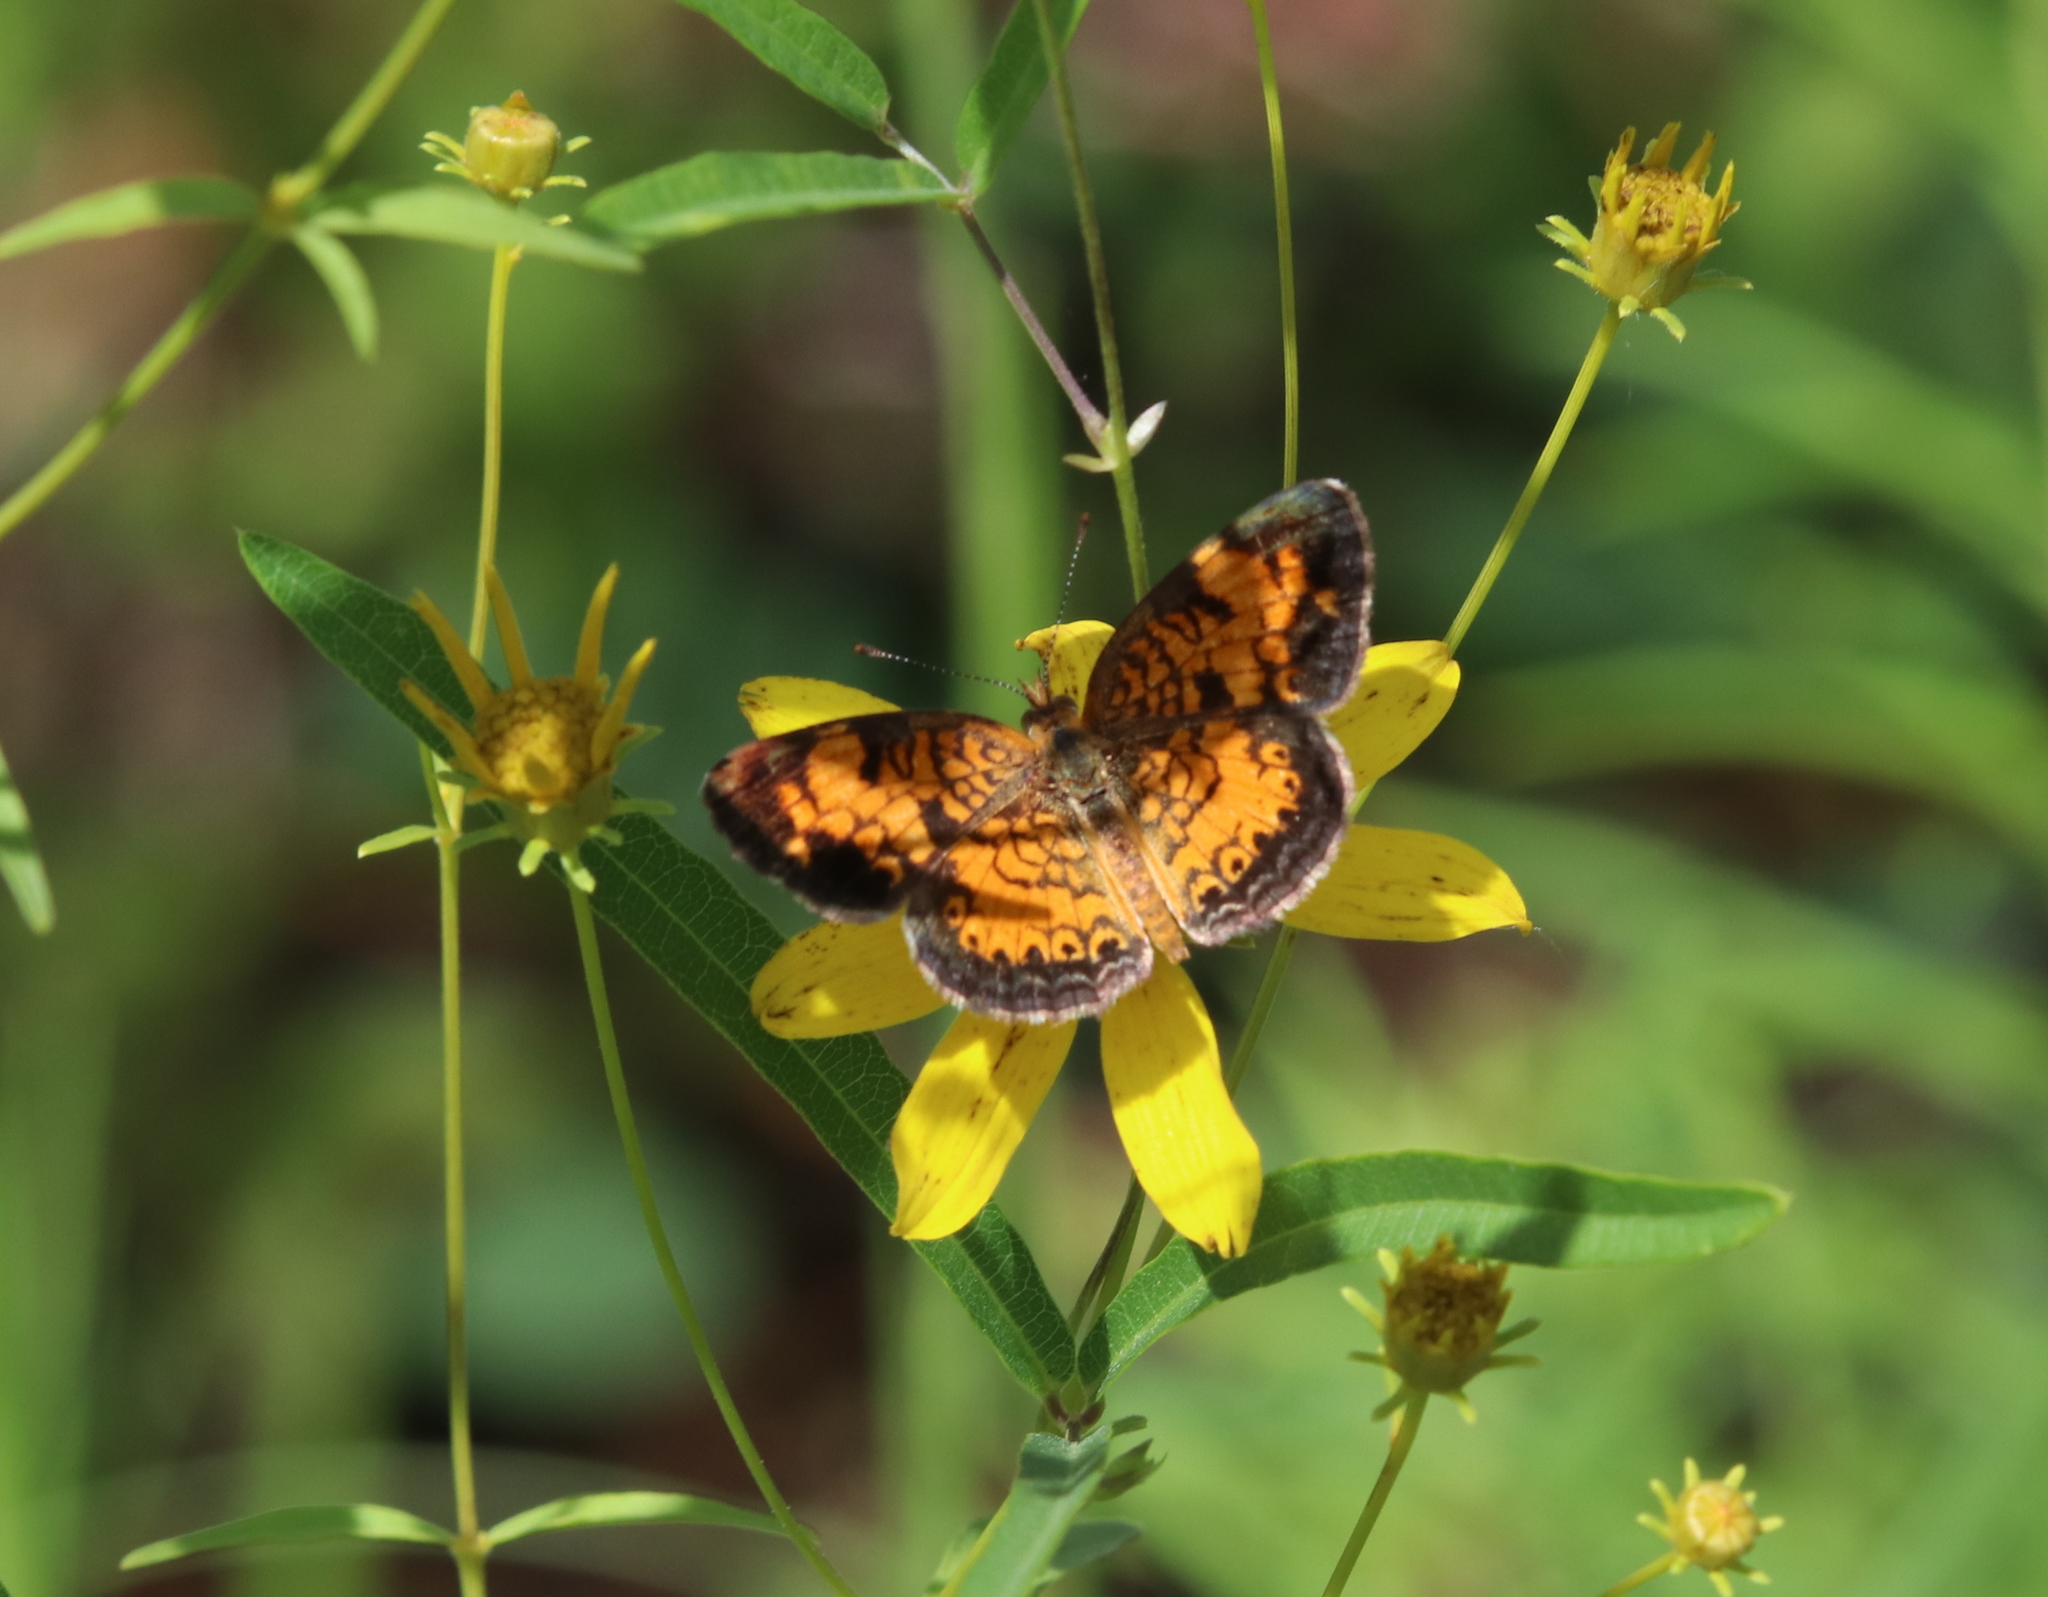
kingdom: Animalia
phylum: Arthropoda
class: Insecta
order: Lepidoptera
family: Nymphalidae
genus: Phyciodes
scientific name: Phyciodes tharos
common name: Pearl crescent
